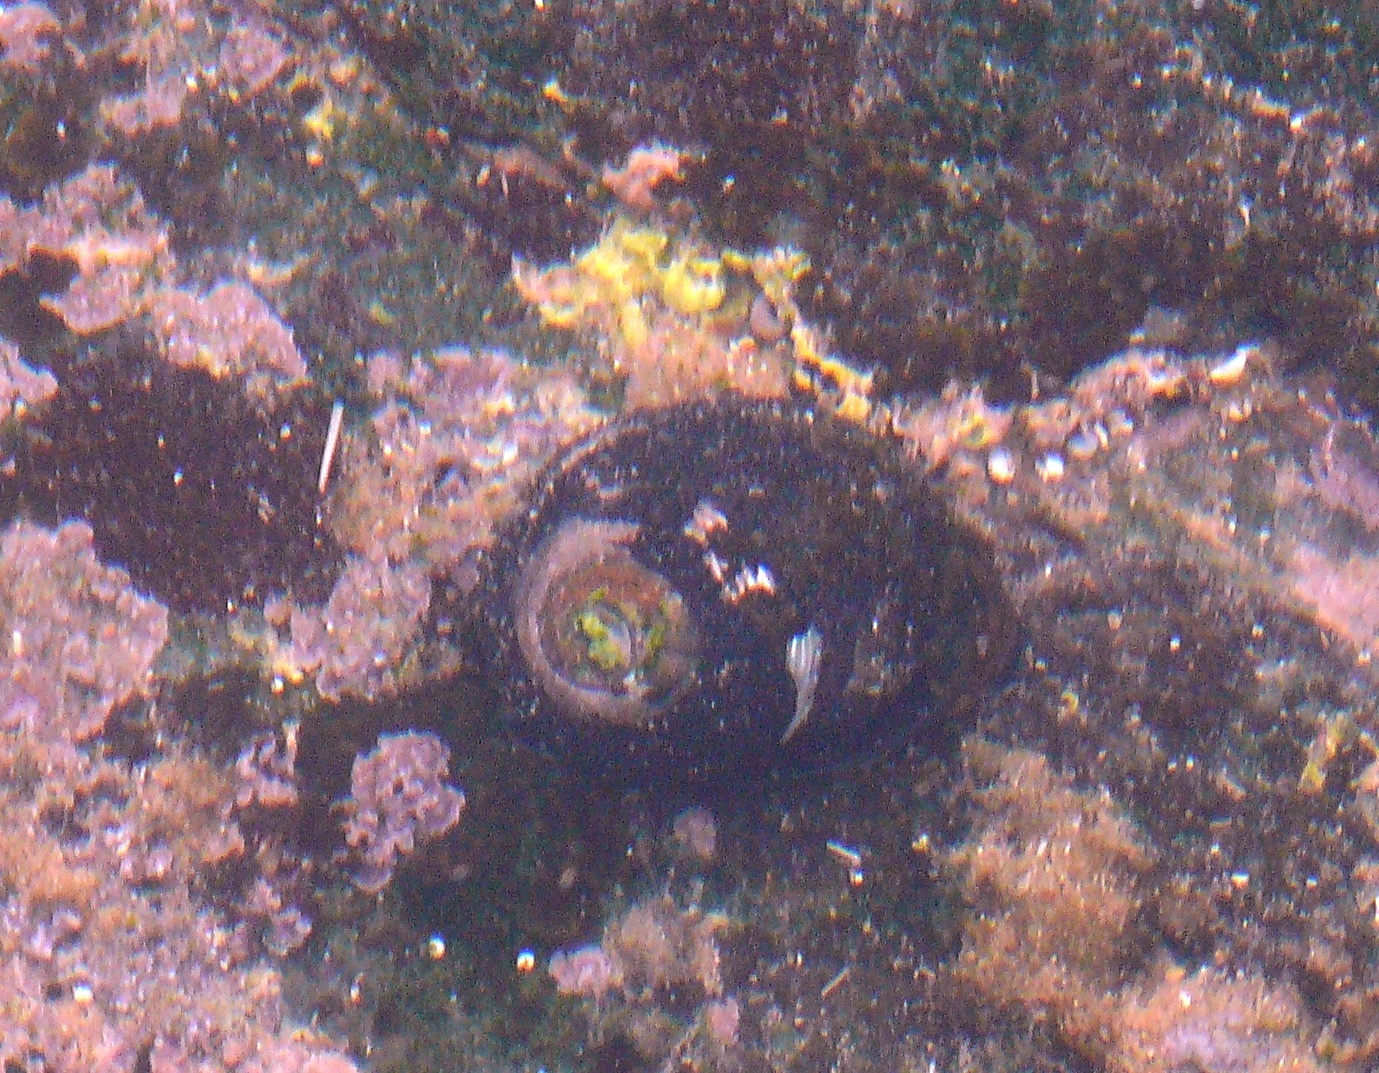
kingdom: Animalia
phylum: Mollusca
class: Gastropoda
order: Trochida
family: Trochidae
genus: Oxystele
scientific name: Oxystele sinensis
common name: Pink-lipped topshell
